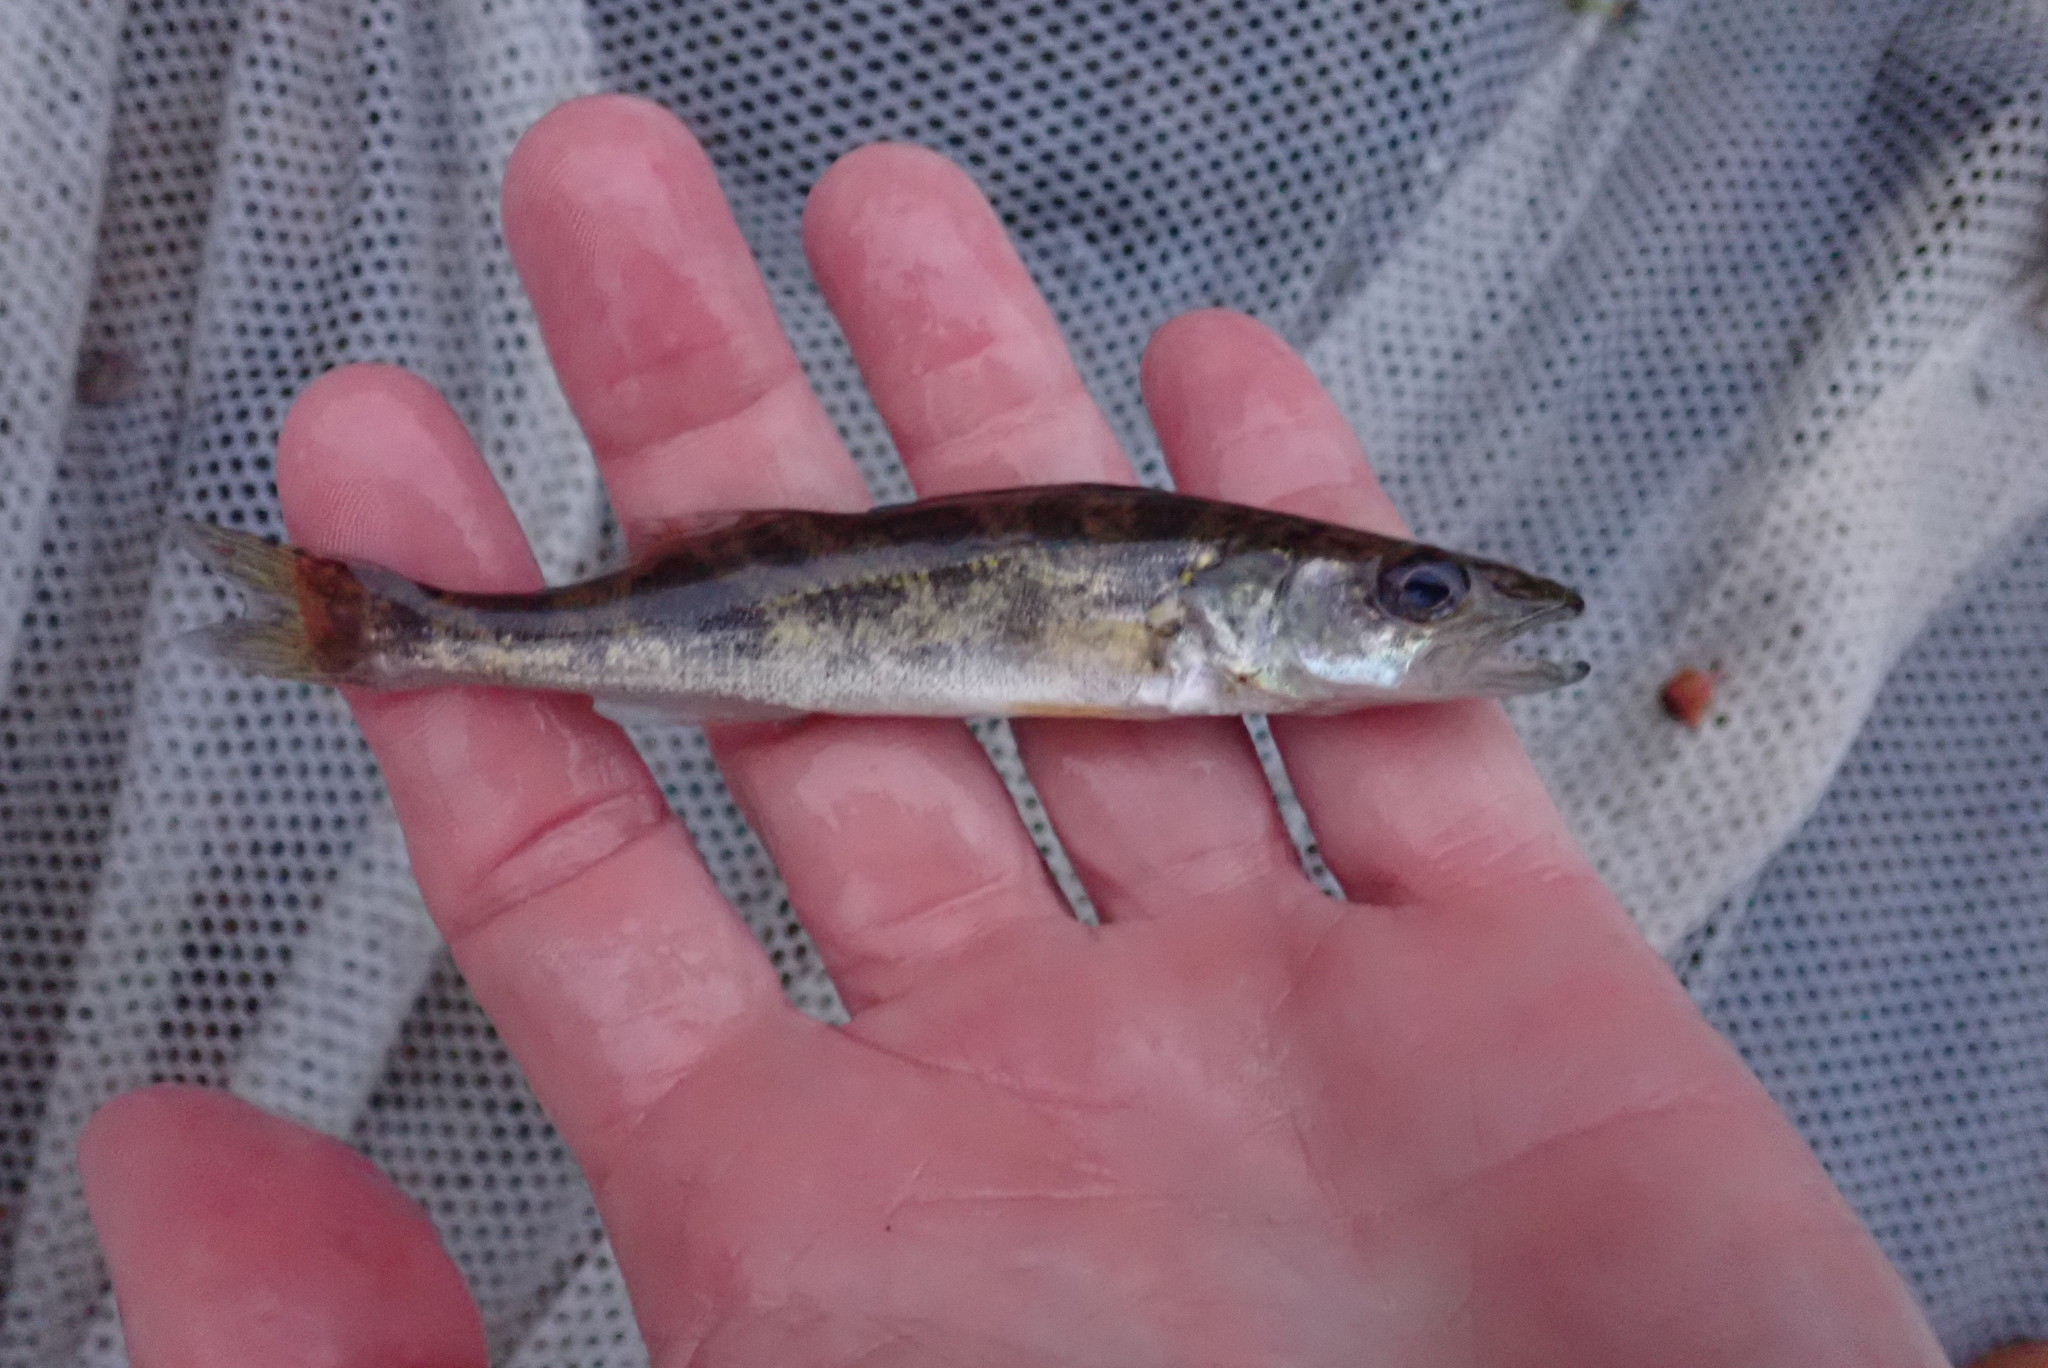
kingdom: Animalia
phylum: Chordata
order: Perciformes
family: Percidae
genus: Sander
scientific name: Sander vitreus
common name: Walleye
